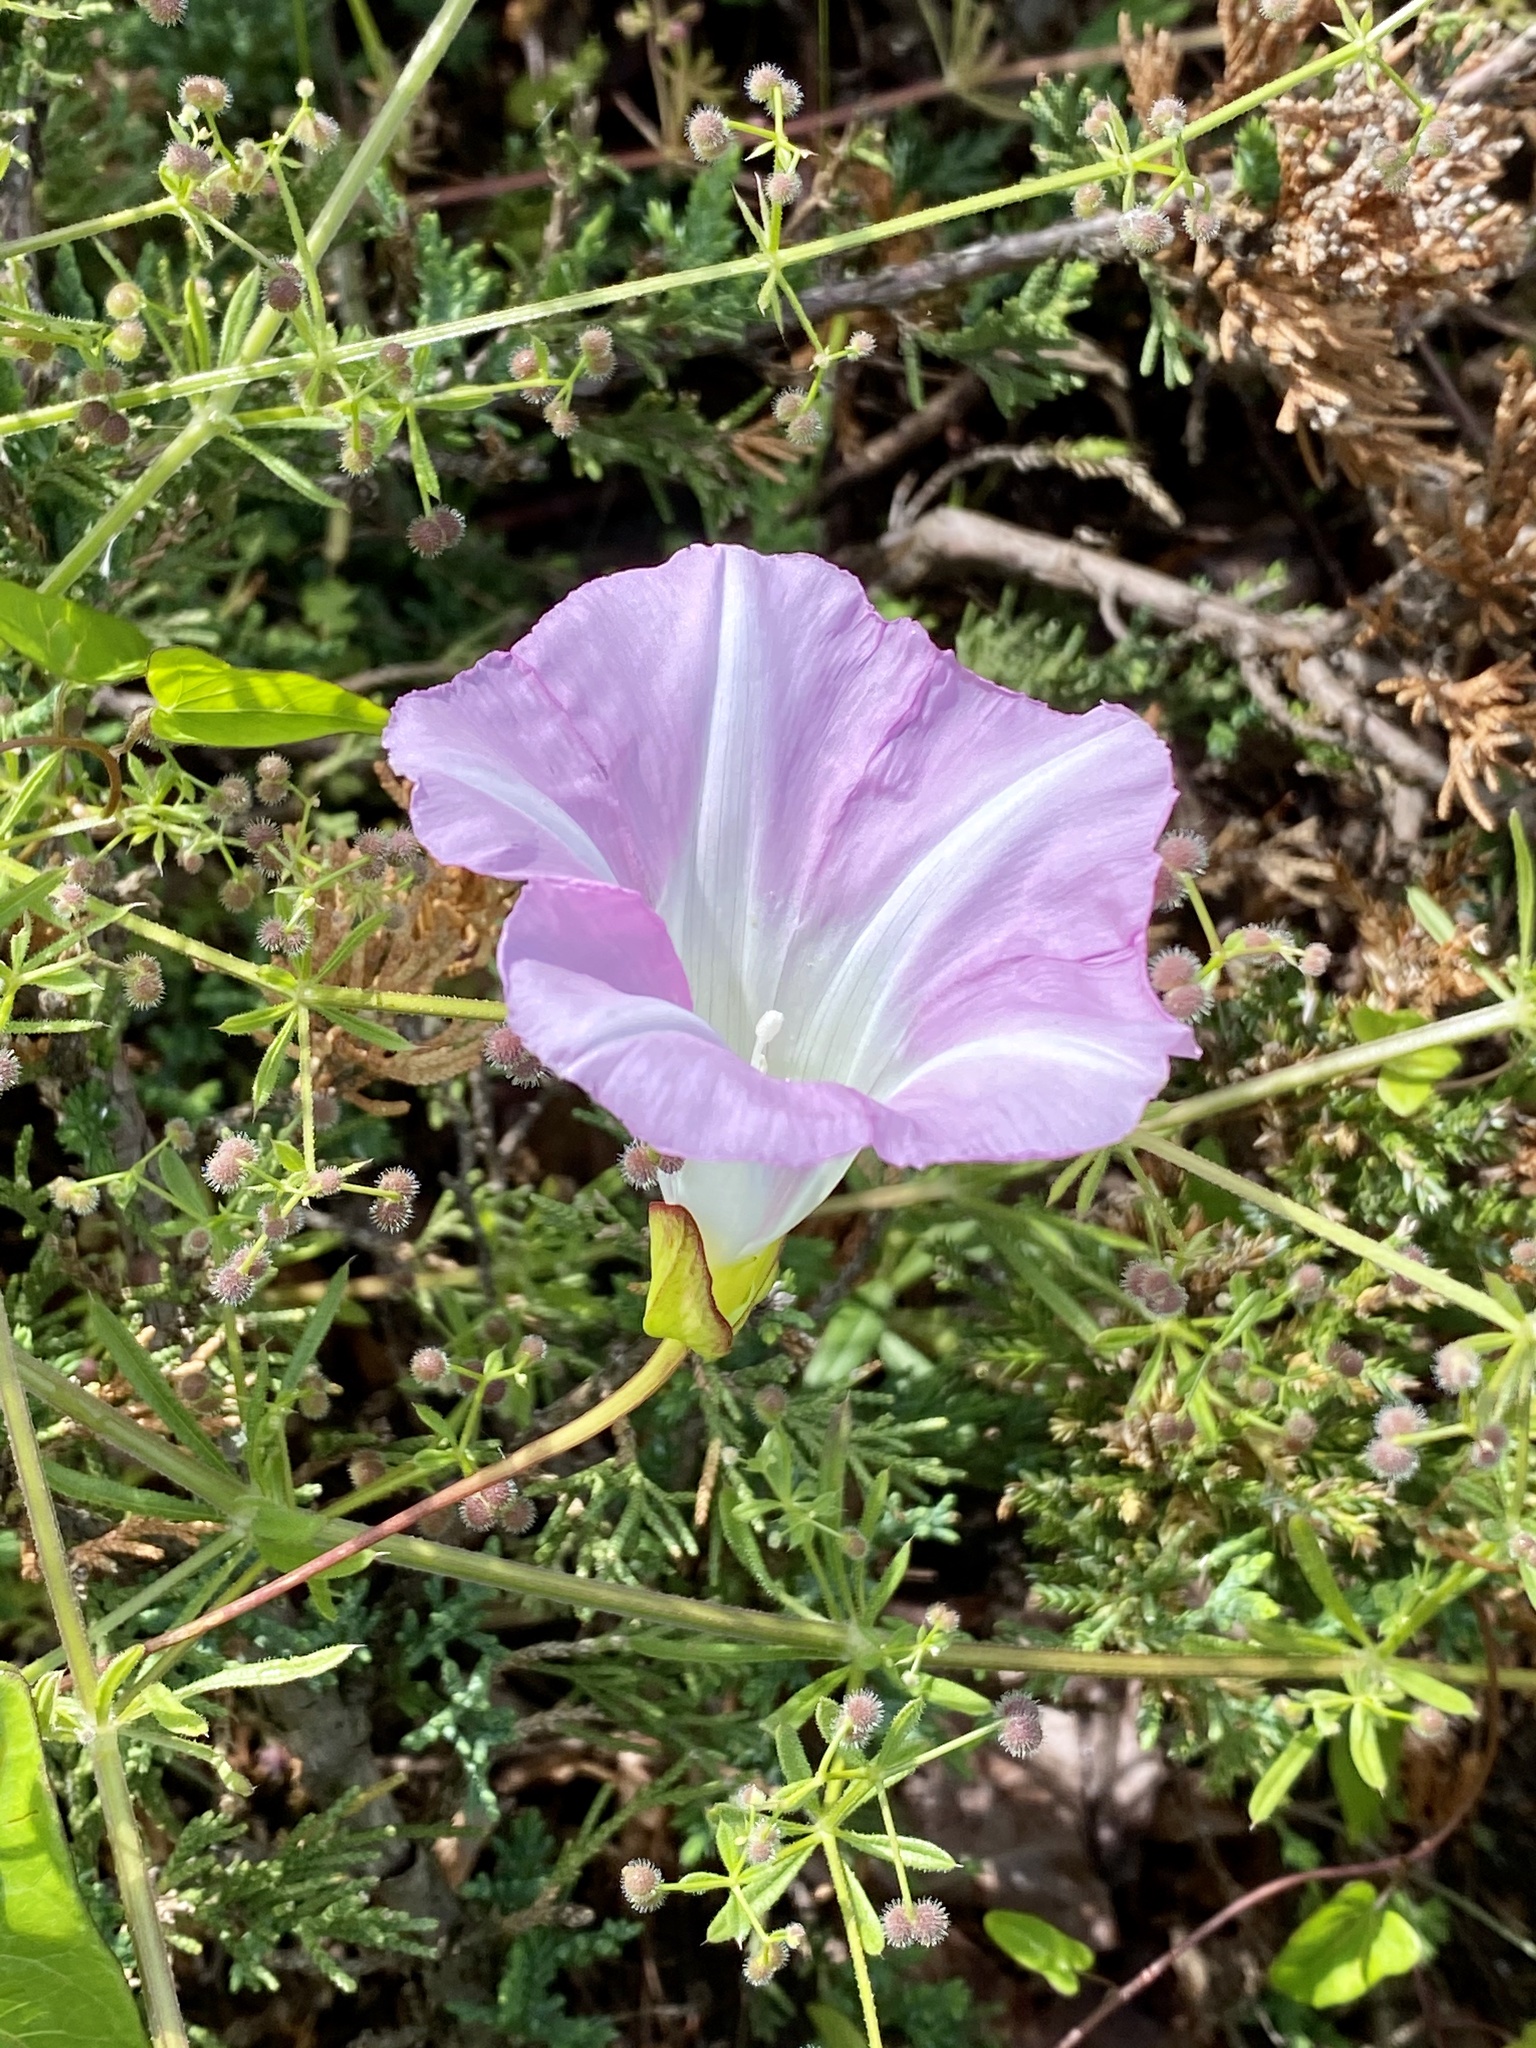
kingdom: Plantae
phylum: Tracheophyta
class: Magnoliopsida
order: Solanales
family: Convolvulaceae
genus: Calystegia
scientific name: Calystegia sepium
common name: Hedge bindweed
